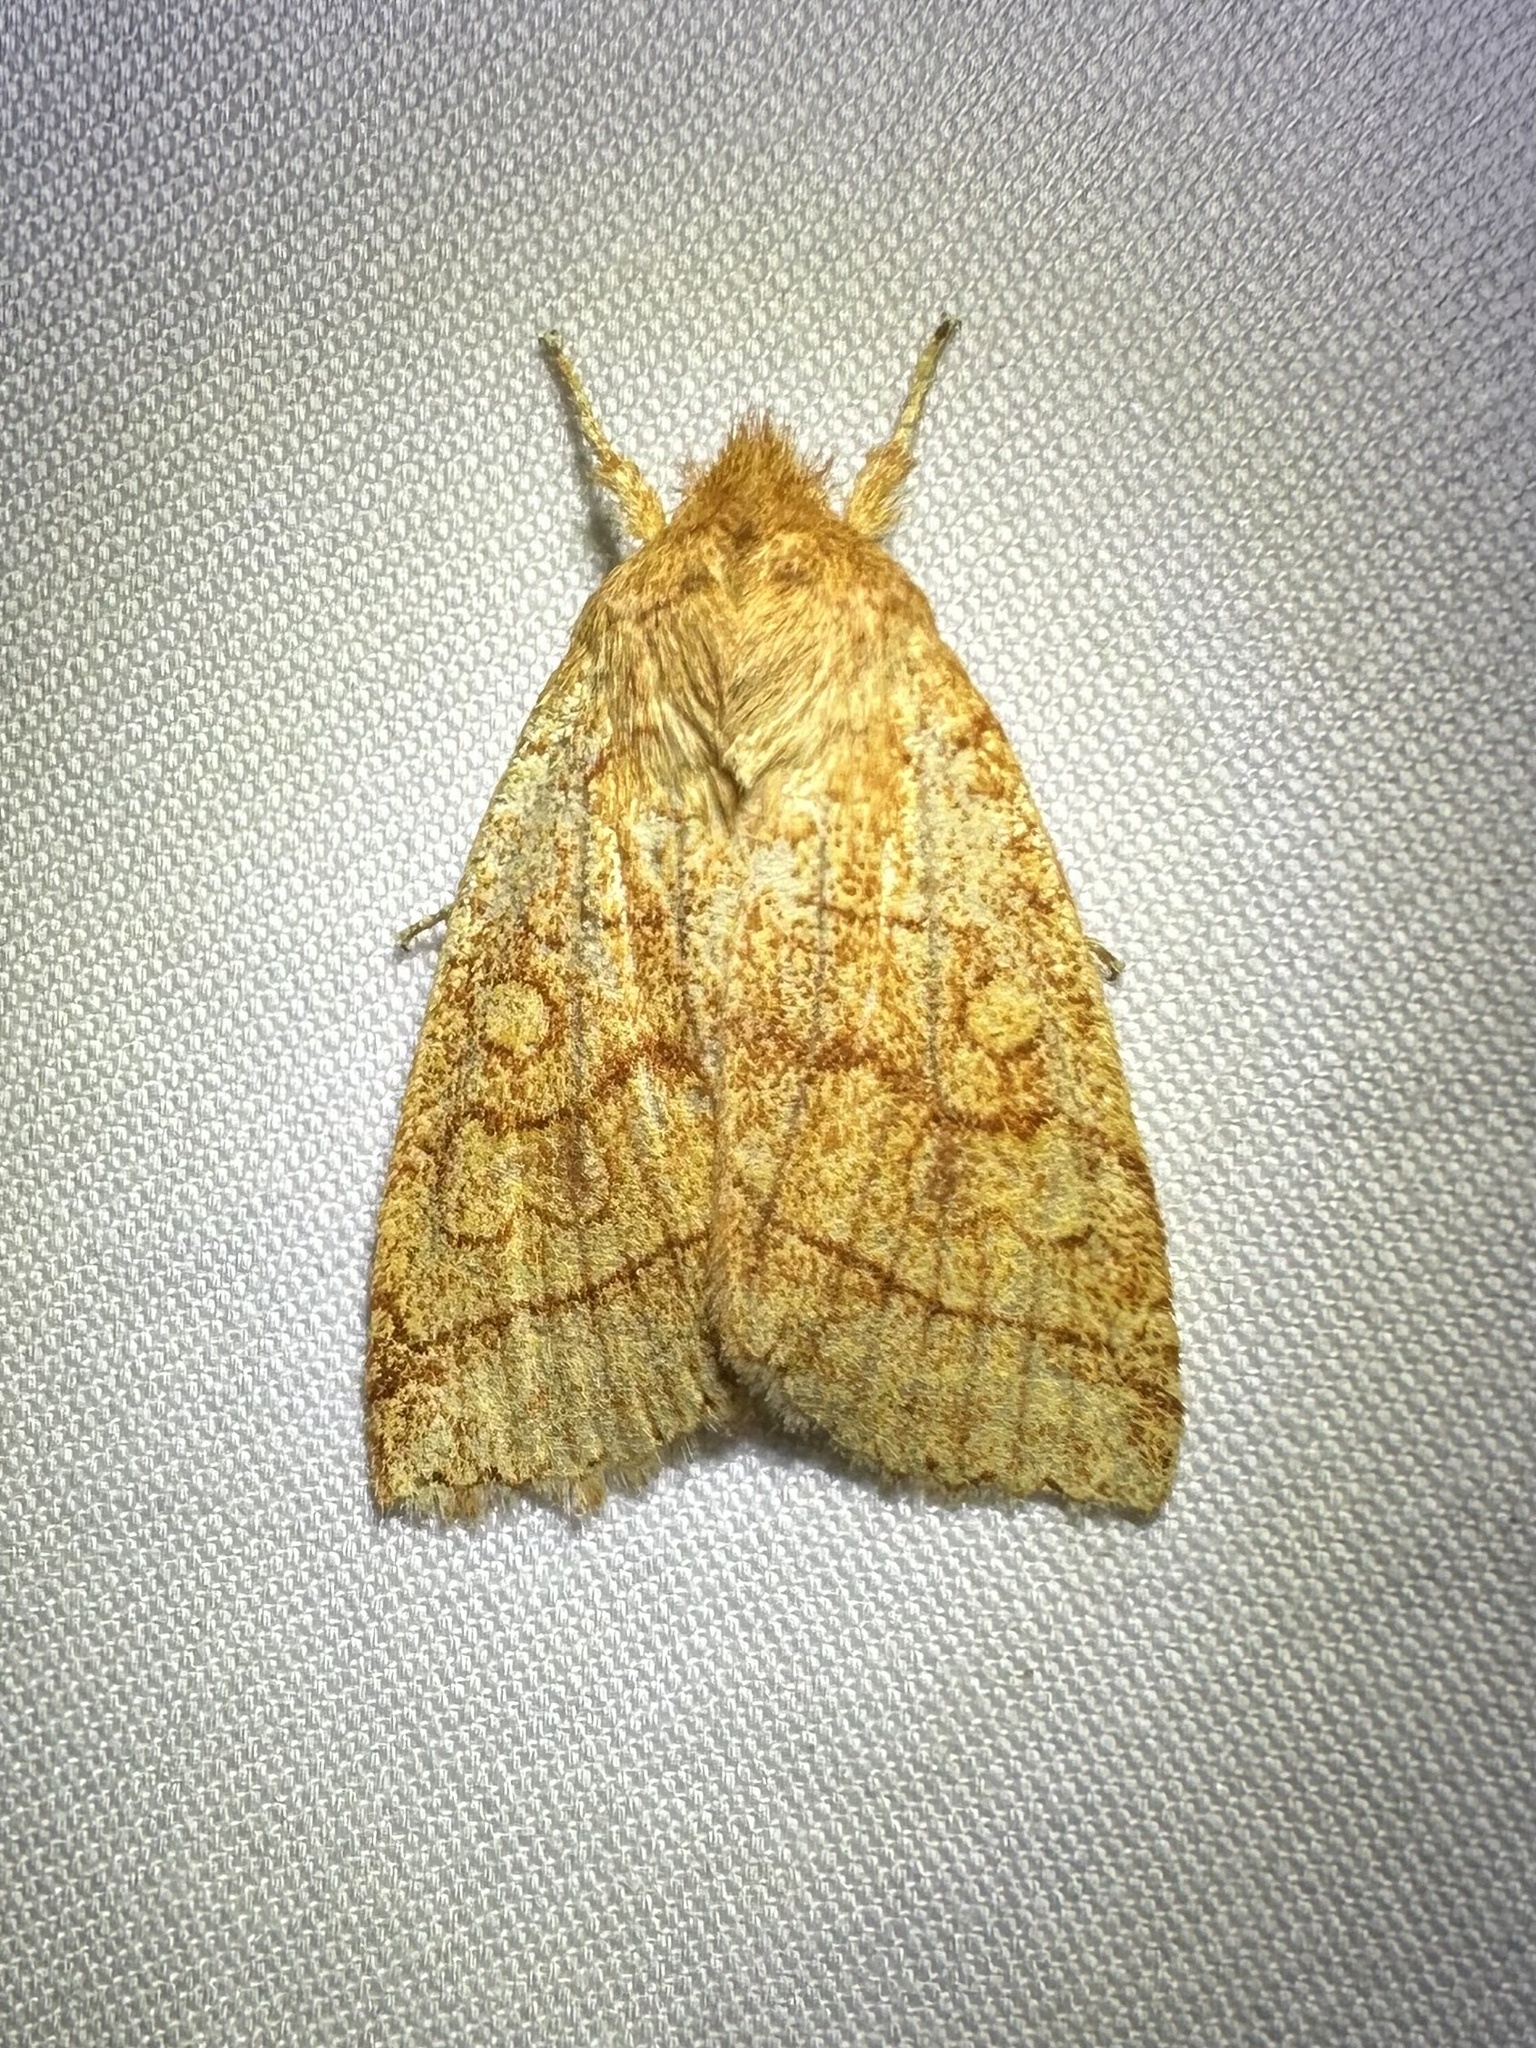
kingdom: Animalia
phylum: Arthropoda
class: Insecta
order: Lepidoptera
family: Noctuidae
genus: Pyreferra
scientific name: Pyreferra hesperidago
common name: Mustard sallow
